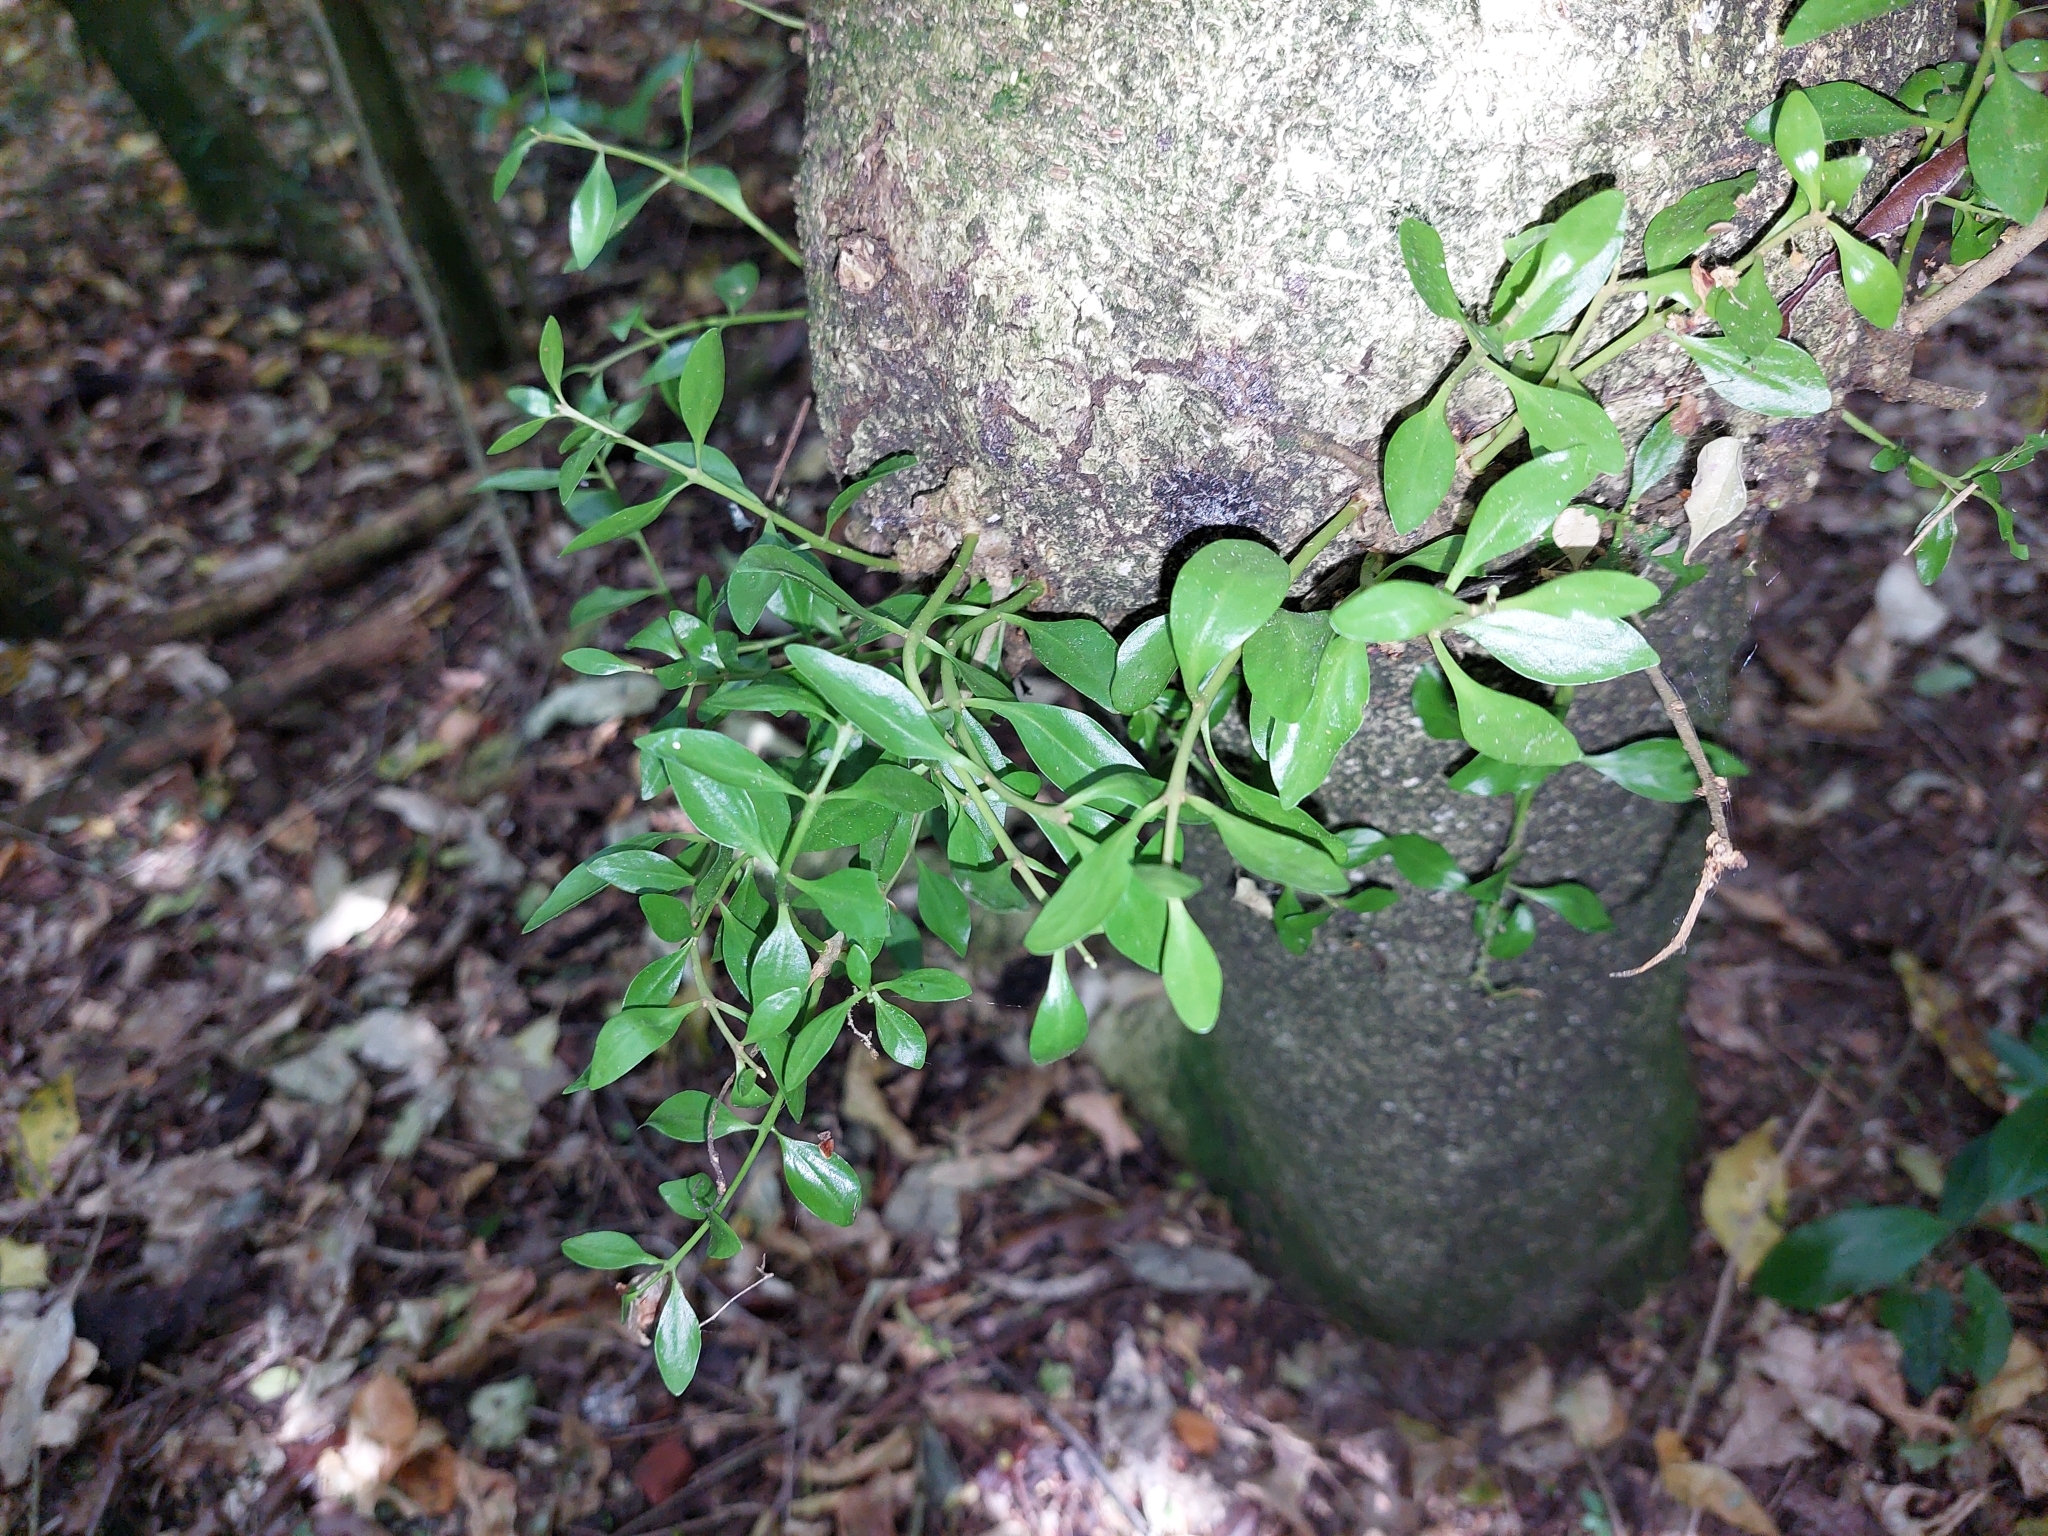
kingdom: Plantae
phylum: Tracheophyta
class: Magnoliopsida
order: Santalales
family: Loranthaceae
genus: Tupeia
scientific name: Tupeia antarctica
